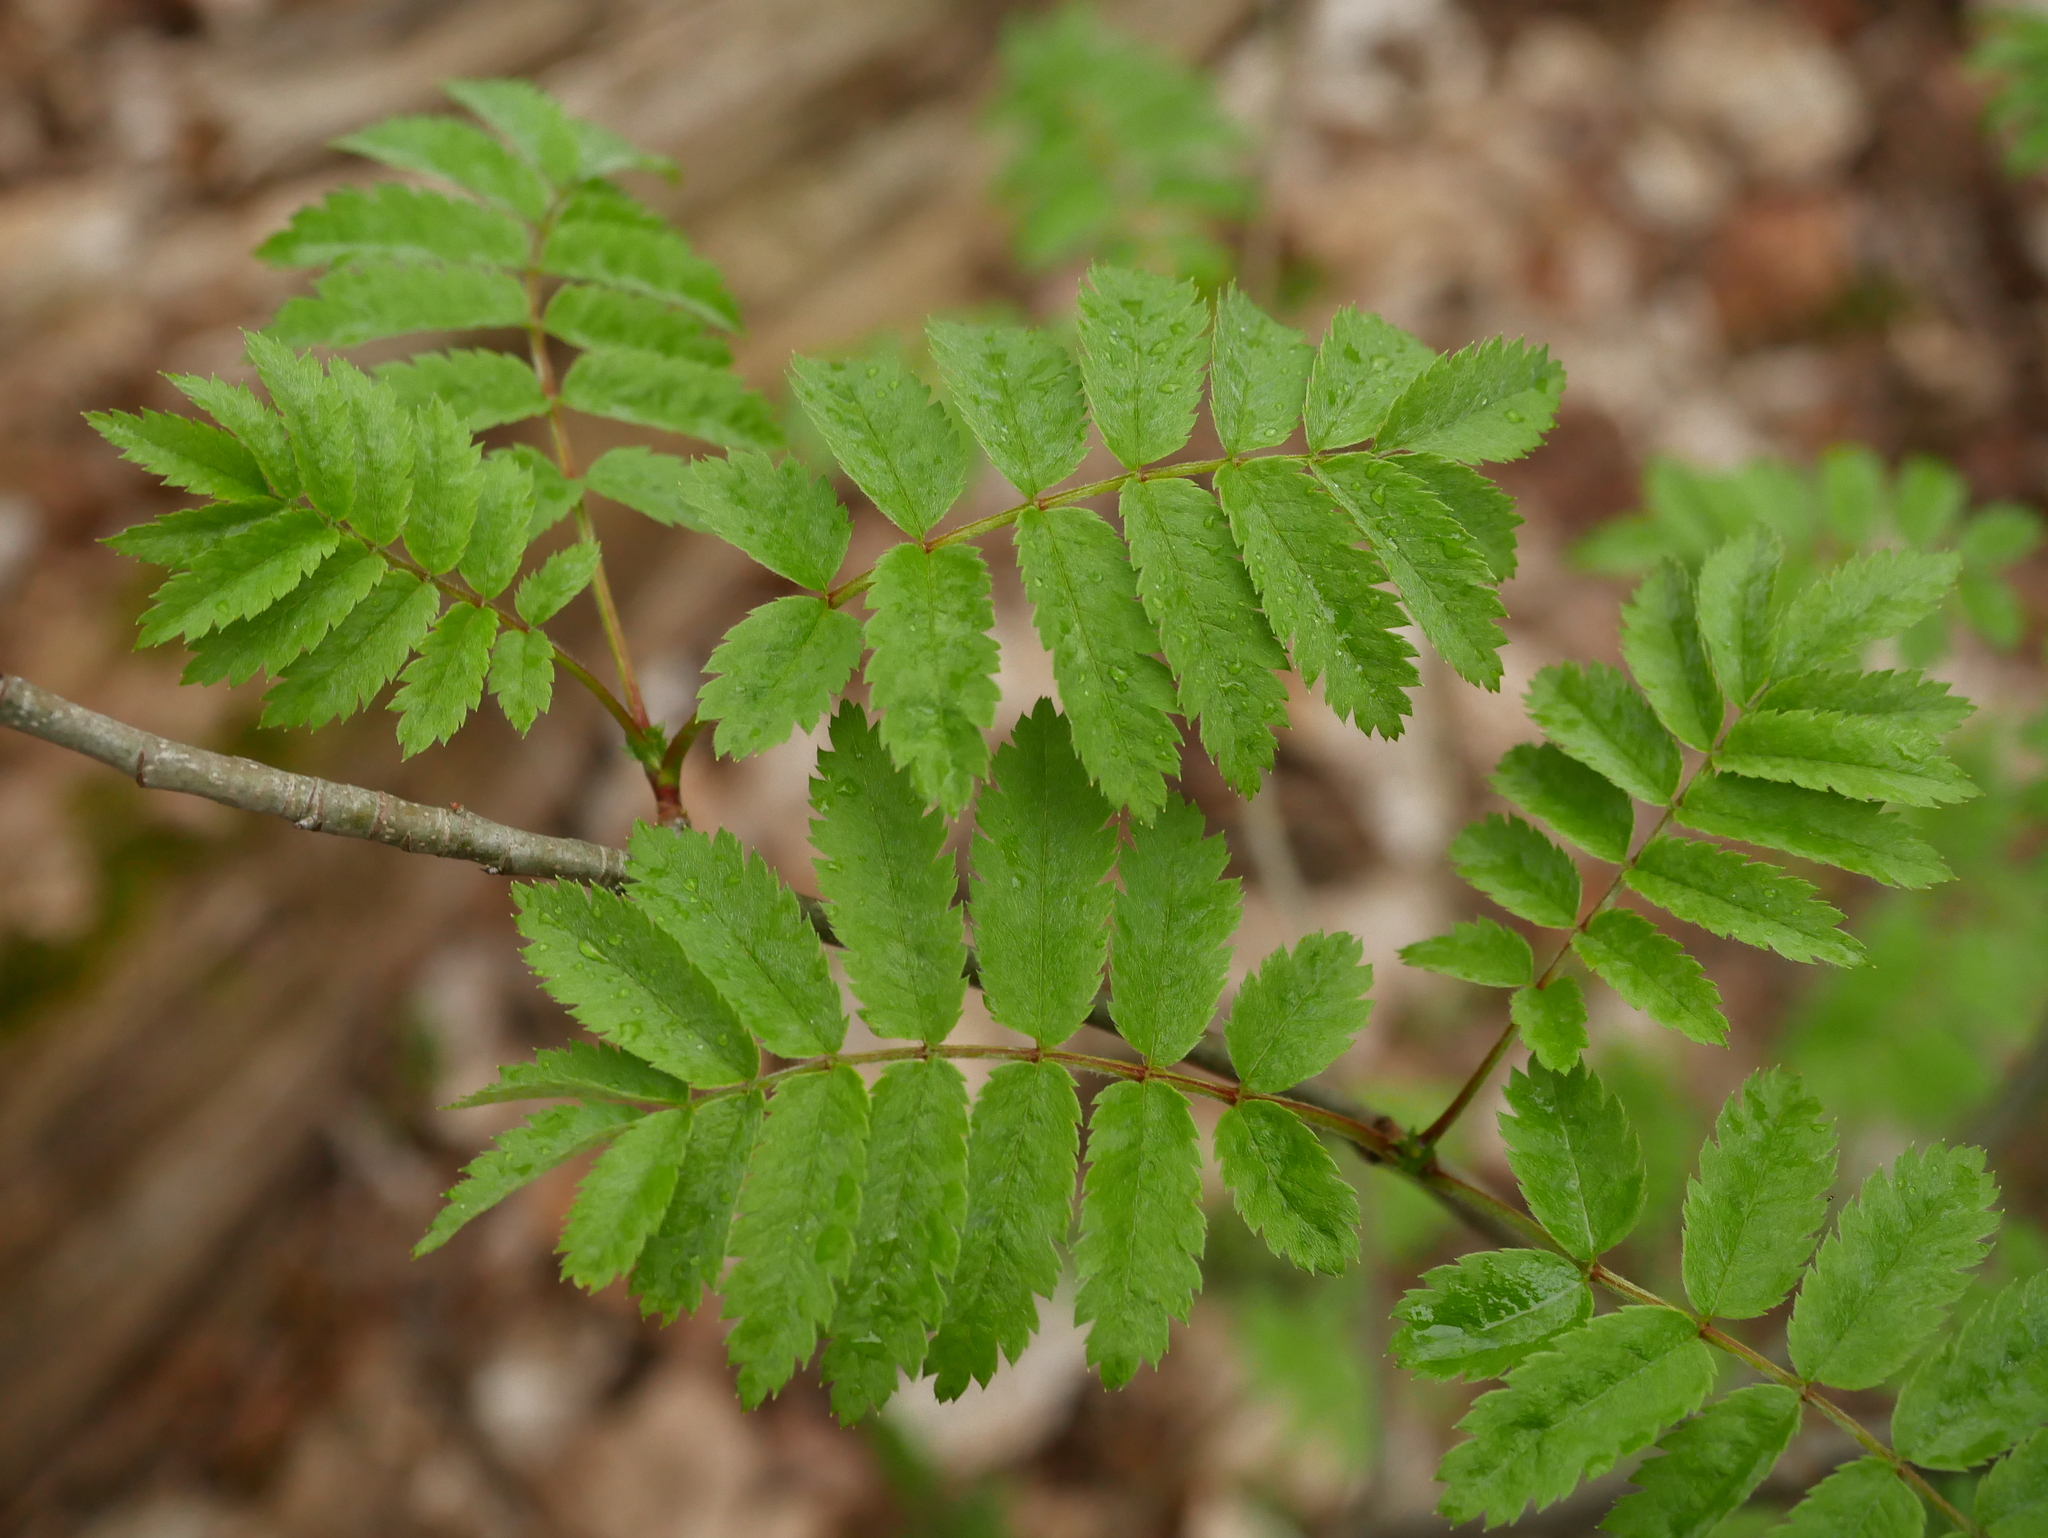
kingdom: Plantae
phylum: Tracheophyta
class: Magnoliopsida
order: Rosales
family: Rosaceae
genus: Sorbus
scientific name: Sorbus aucuparia
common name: Rowan
